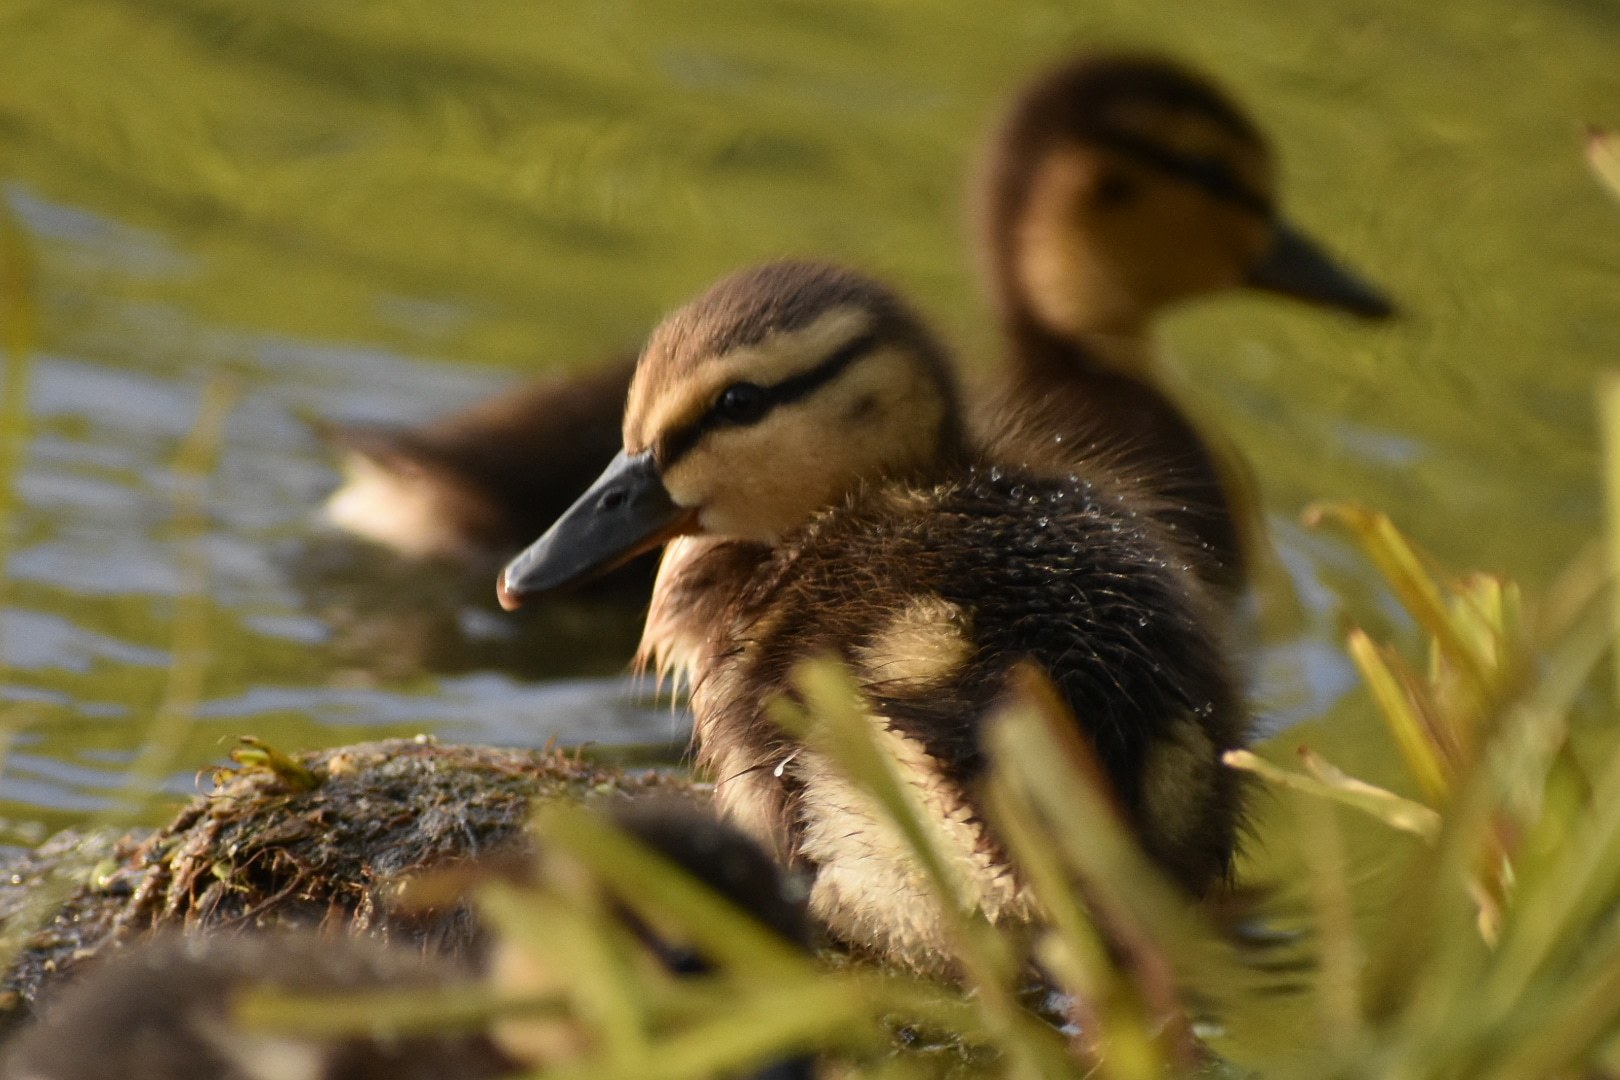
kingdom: Animalia
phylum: Chordata
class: Aves
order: Anseriformes
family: Anatidae
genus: Anas
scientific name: Anas platyrhynchos
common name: Mallard
